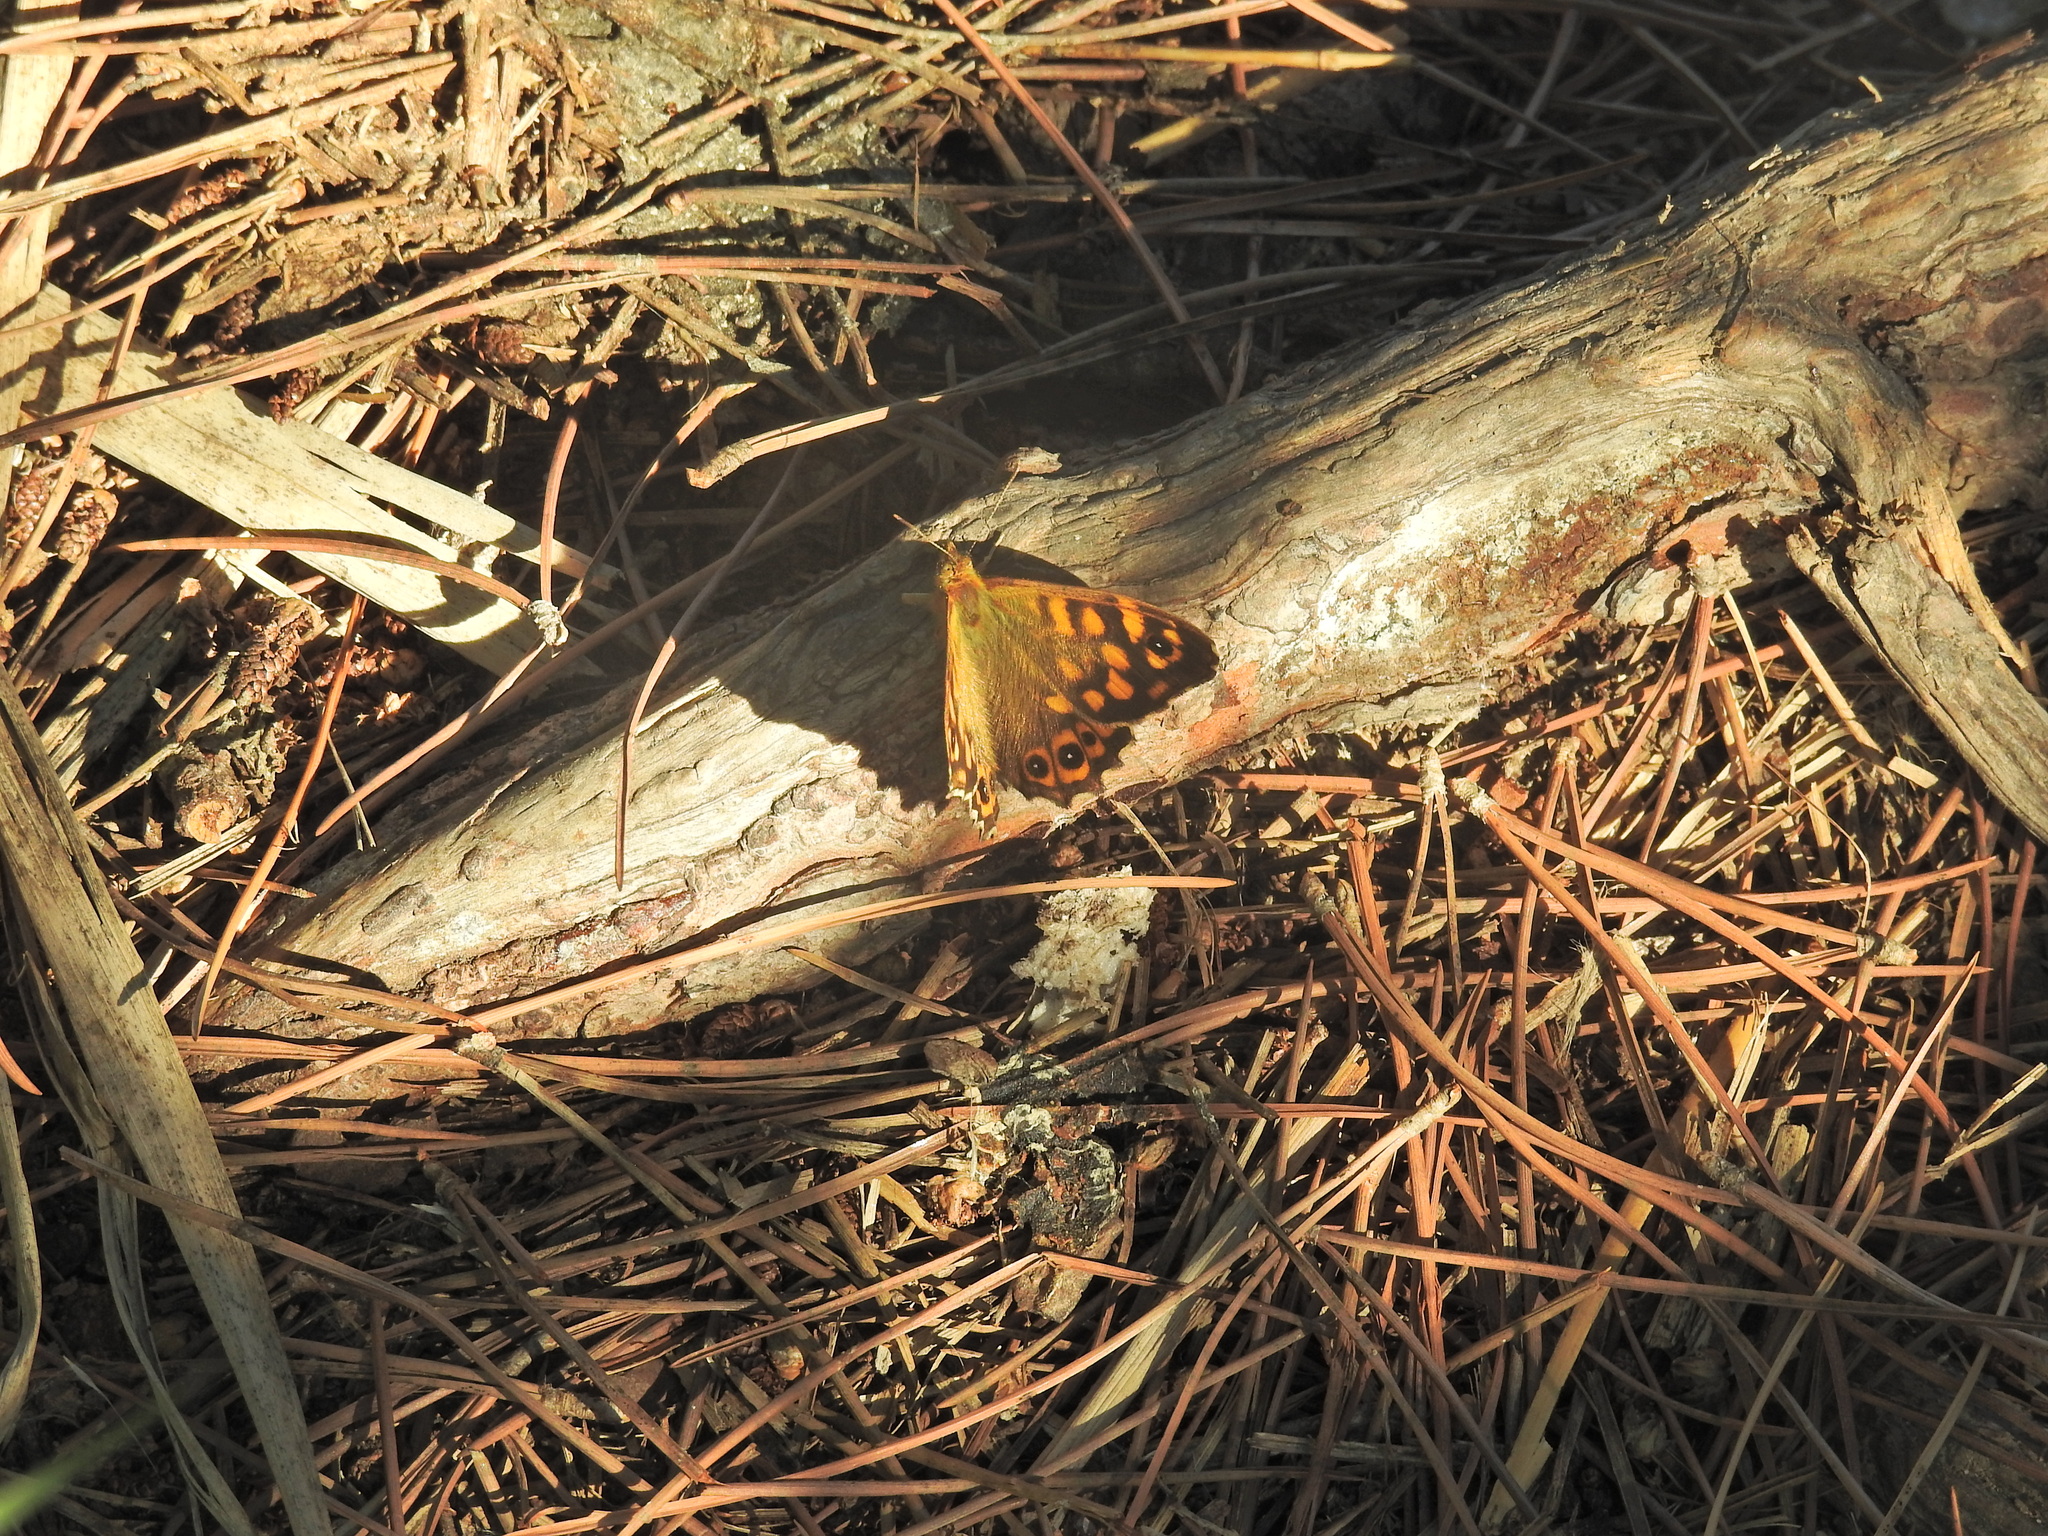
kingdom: Animalia
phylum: Arthropoda
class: Insecta
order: Lepidoptera
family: Nymphalidae
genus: Pararge
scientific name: Pararge aegeria
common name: Speckled wood
